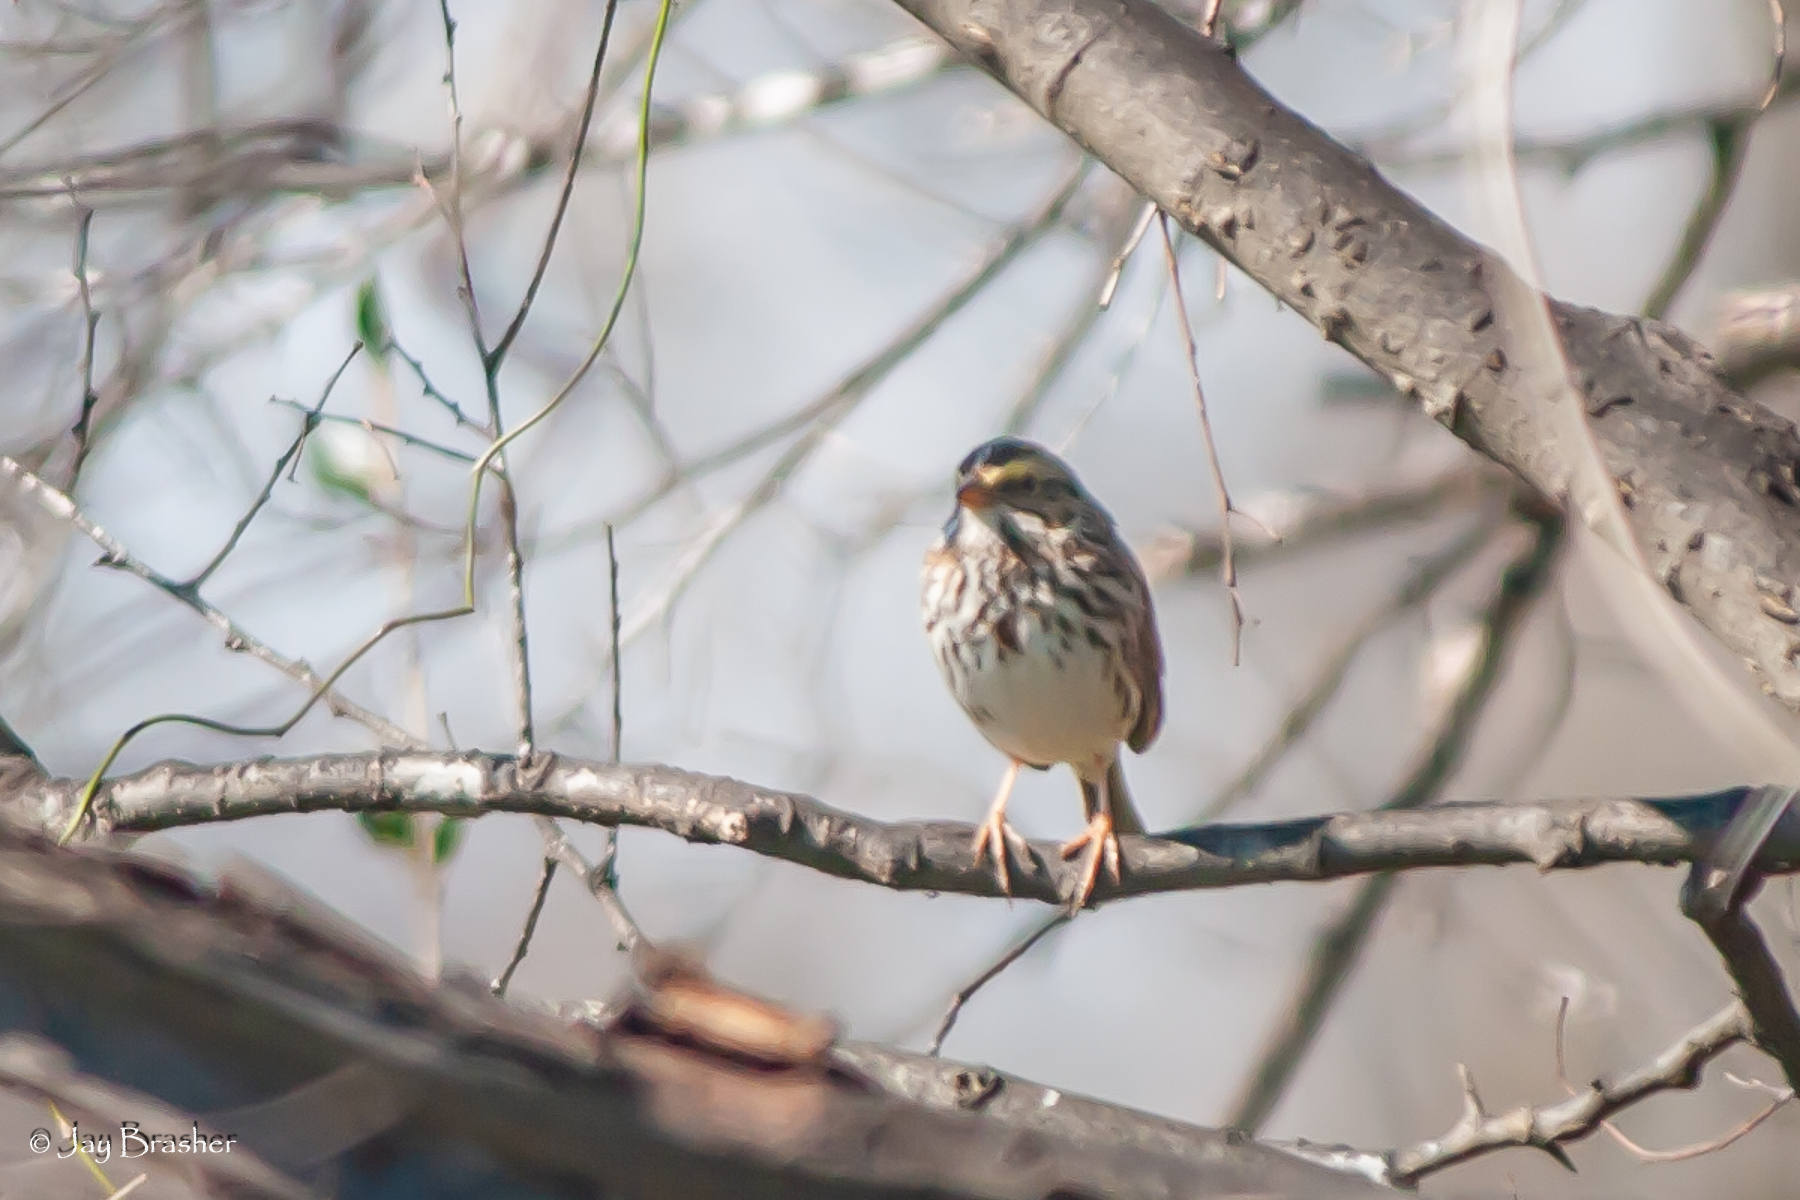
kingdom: Animalia
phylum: Chordata
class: Aves
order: Passeriformes
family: Passerellidae
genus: Passerculus
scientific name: Passerculus sandwichensis
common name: Savannah sparrow
